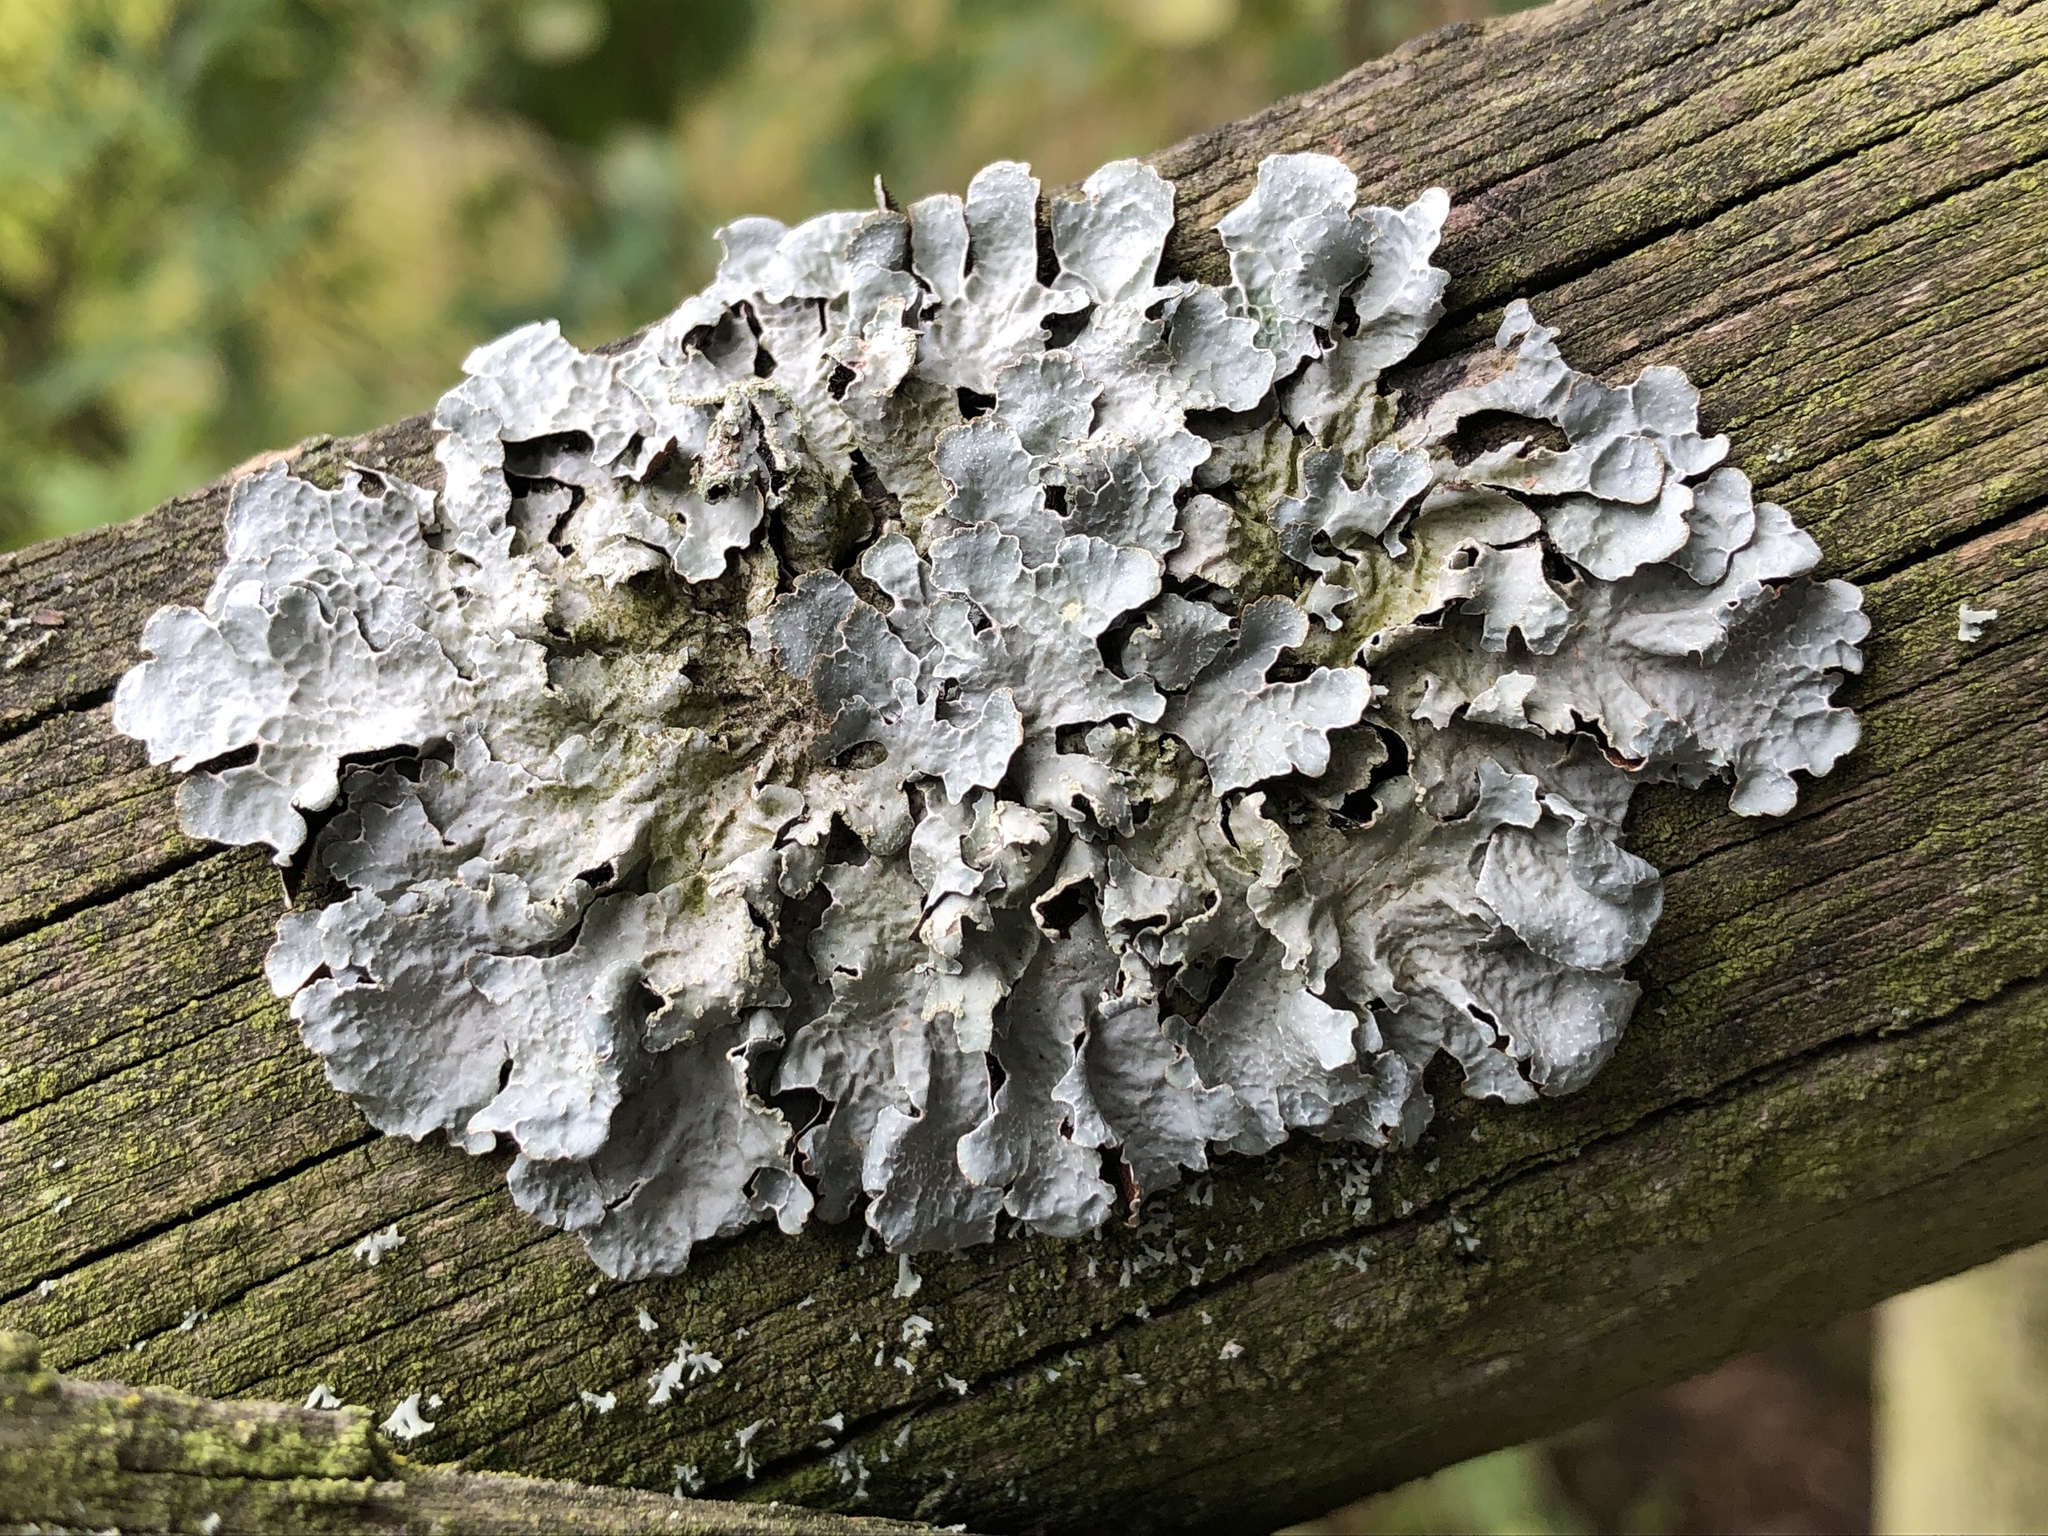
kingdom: Fungi
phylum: Ascomycota
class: Lecanoromycetes
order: Lecanorales
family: Parmeliaceae
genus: Parmelia
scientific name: Parmelia sulcata
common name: Netted shield lichen
